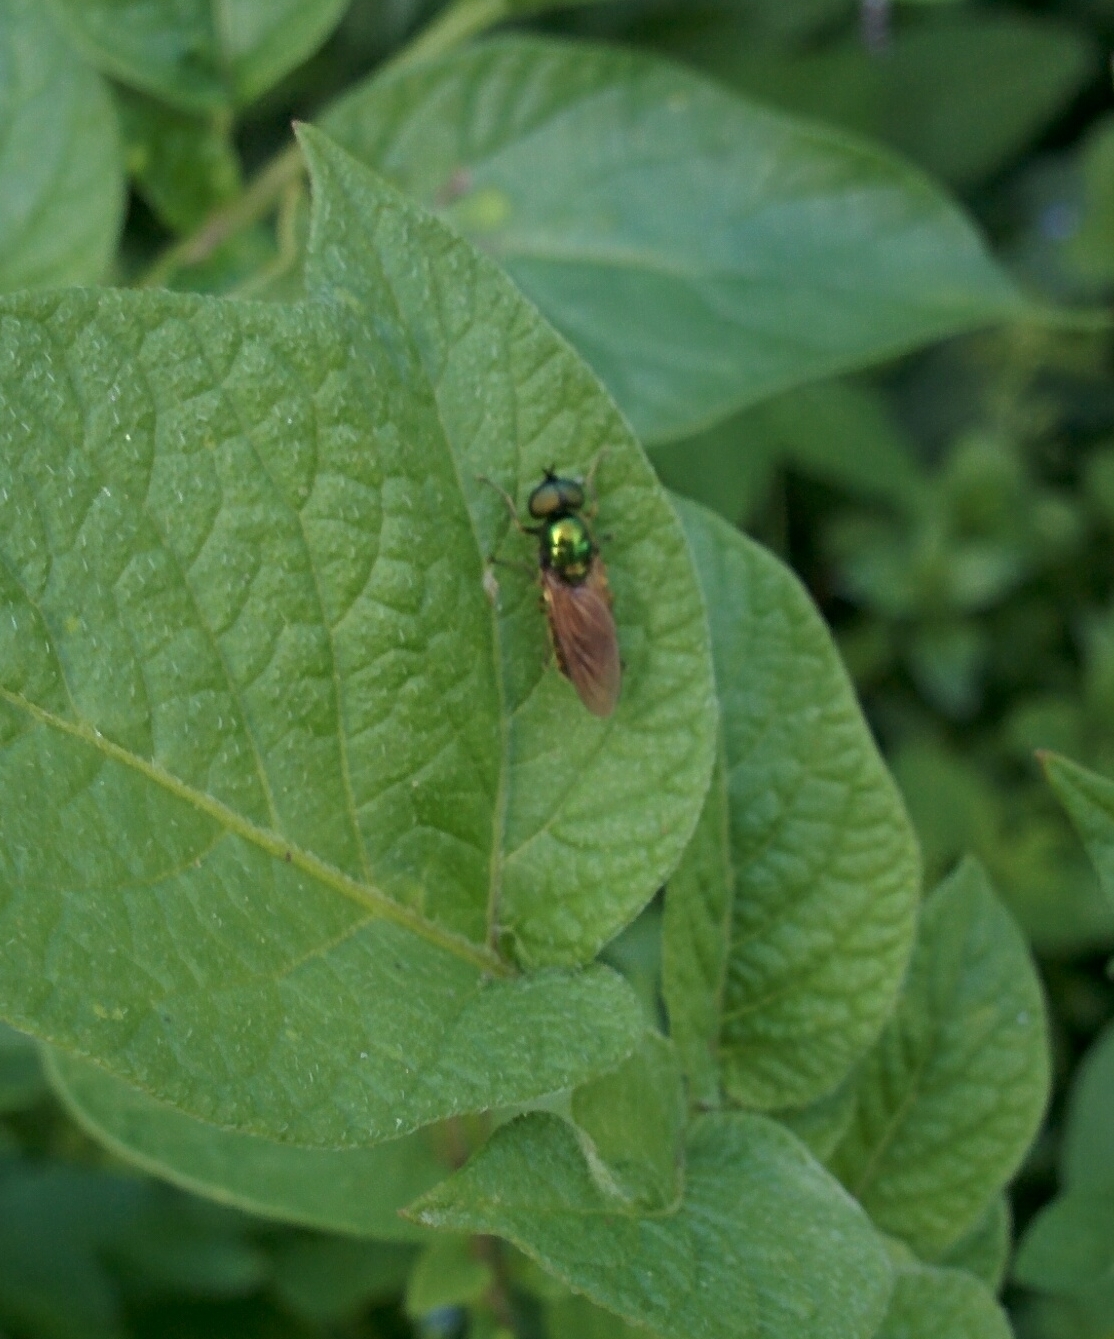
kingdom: Animalia
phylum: Arthropoda
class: Insecta
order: Diptera
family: Stratiomyidae
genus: Chloromyia
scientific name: Chloromyia formosa
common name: Soldier fly
